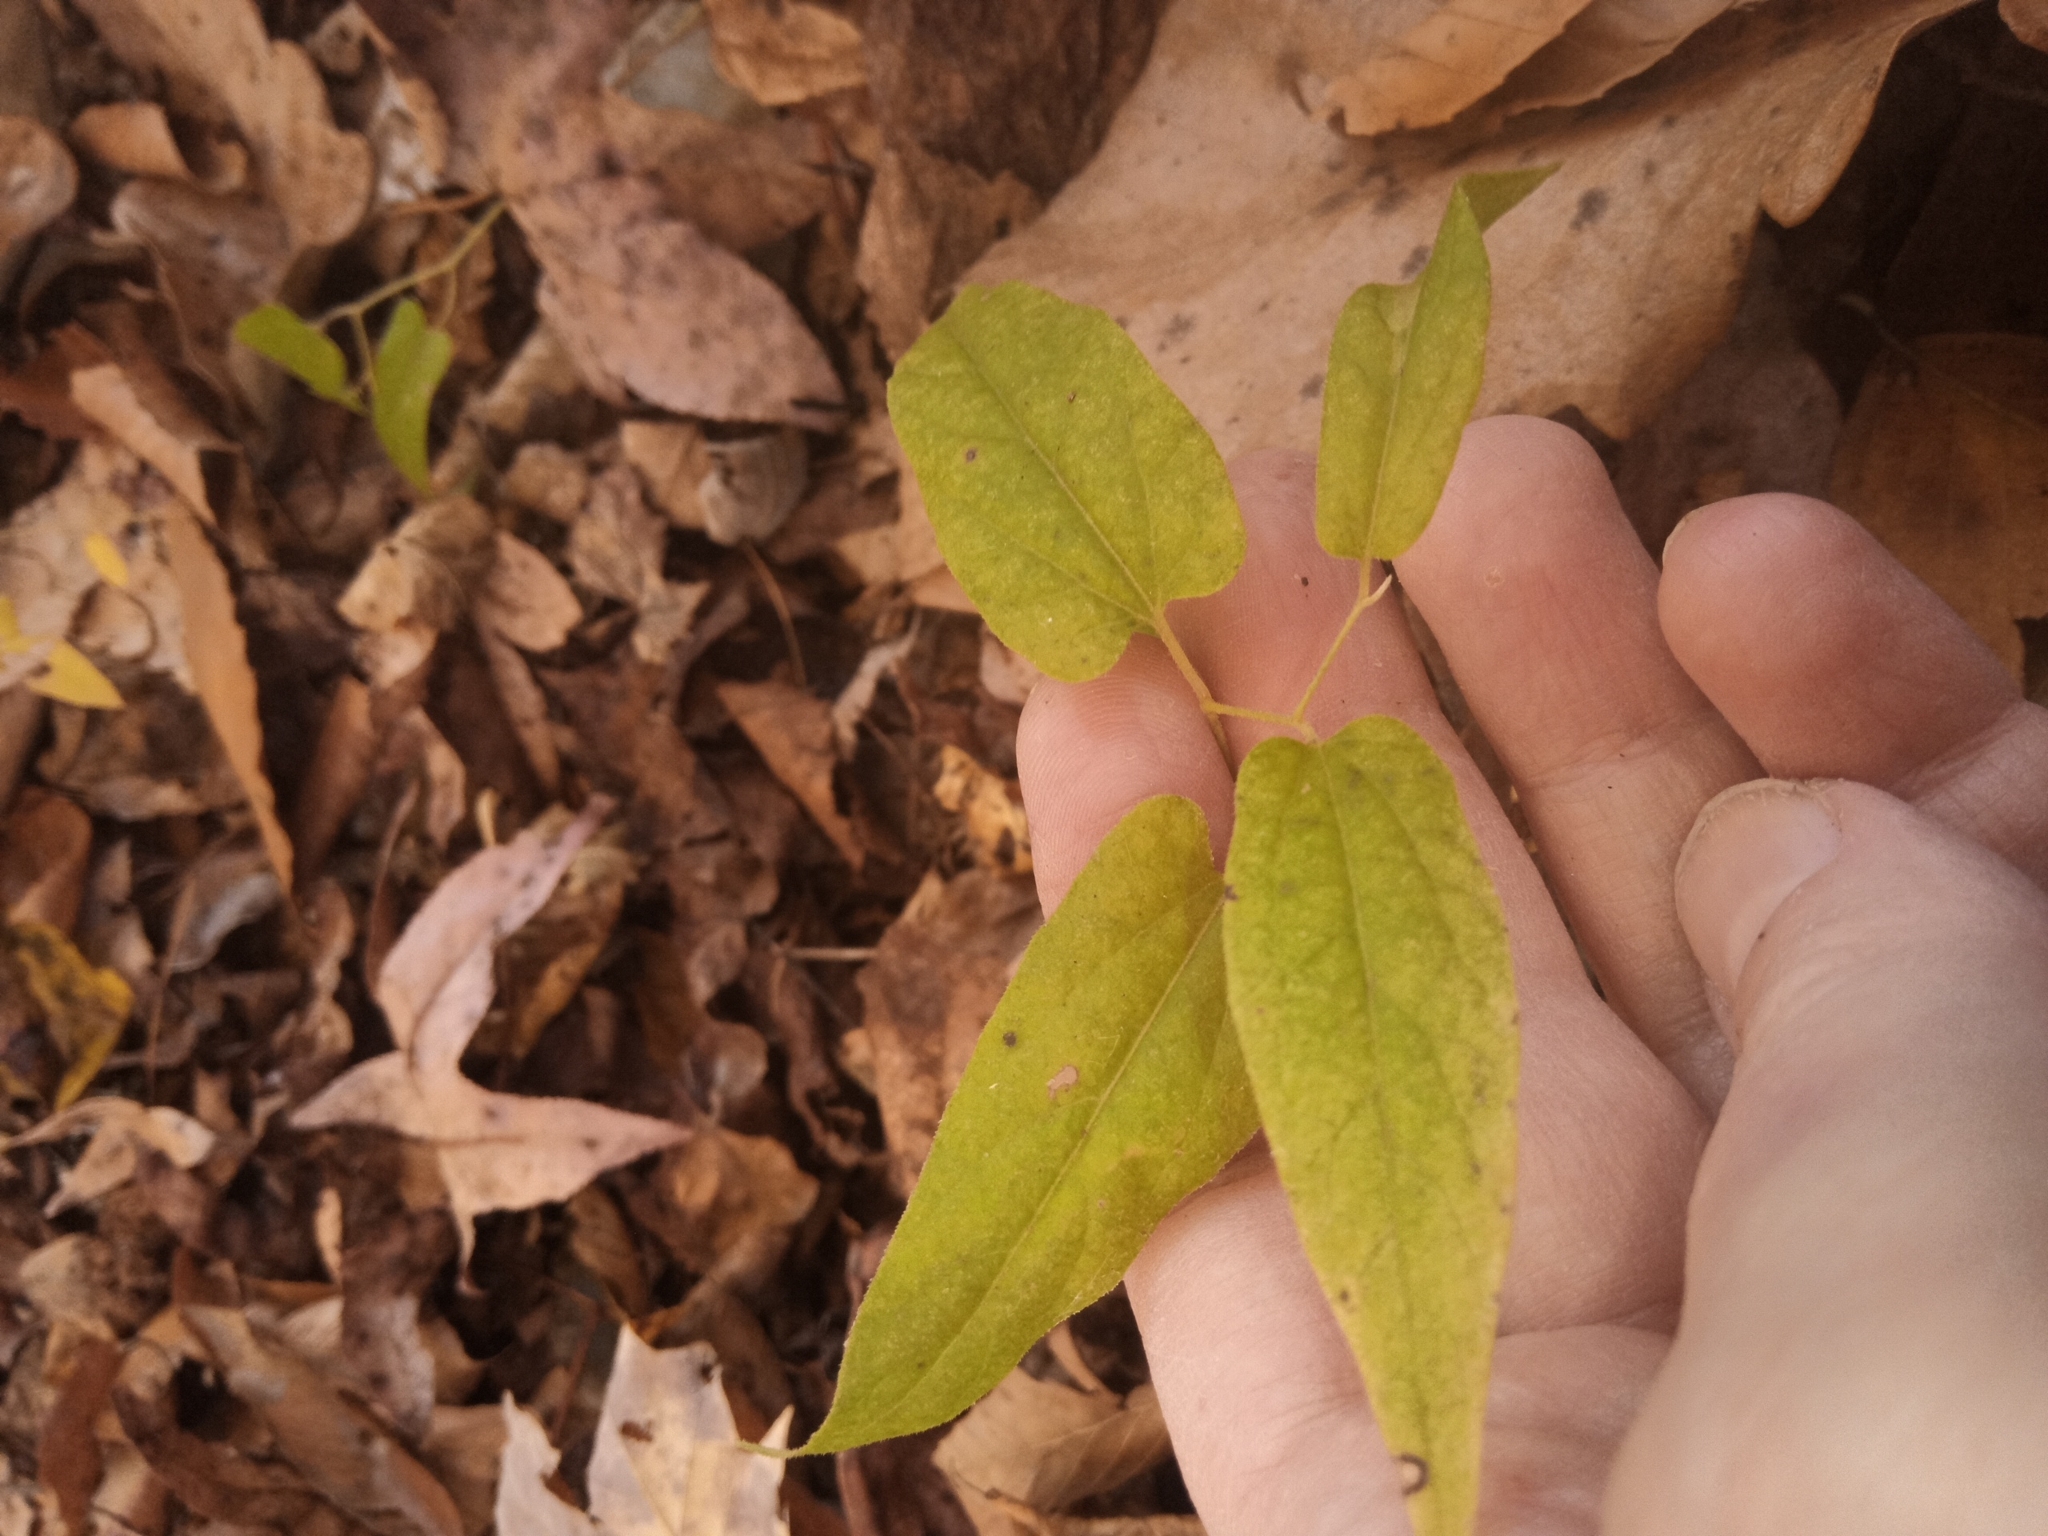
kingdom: Plantae
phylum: Tracheophyta
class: Magnoliopsida
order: Piperales
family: Aristolochiaceae
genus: Endodeca
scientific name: Endodeca serpentaria
